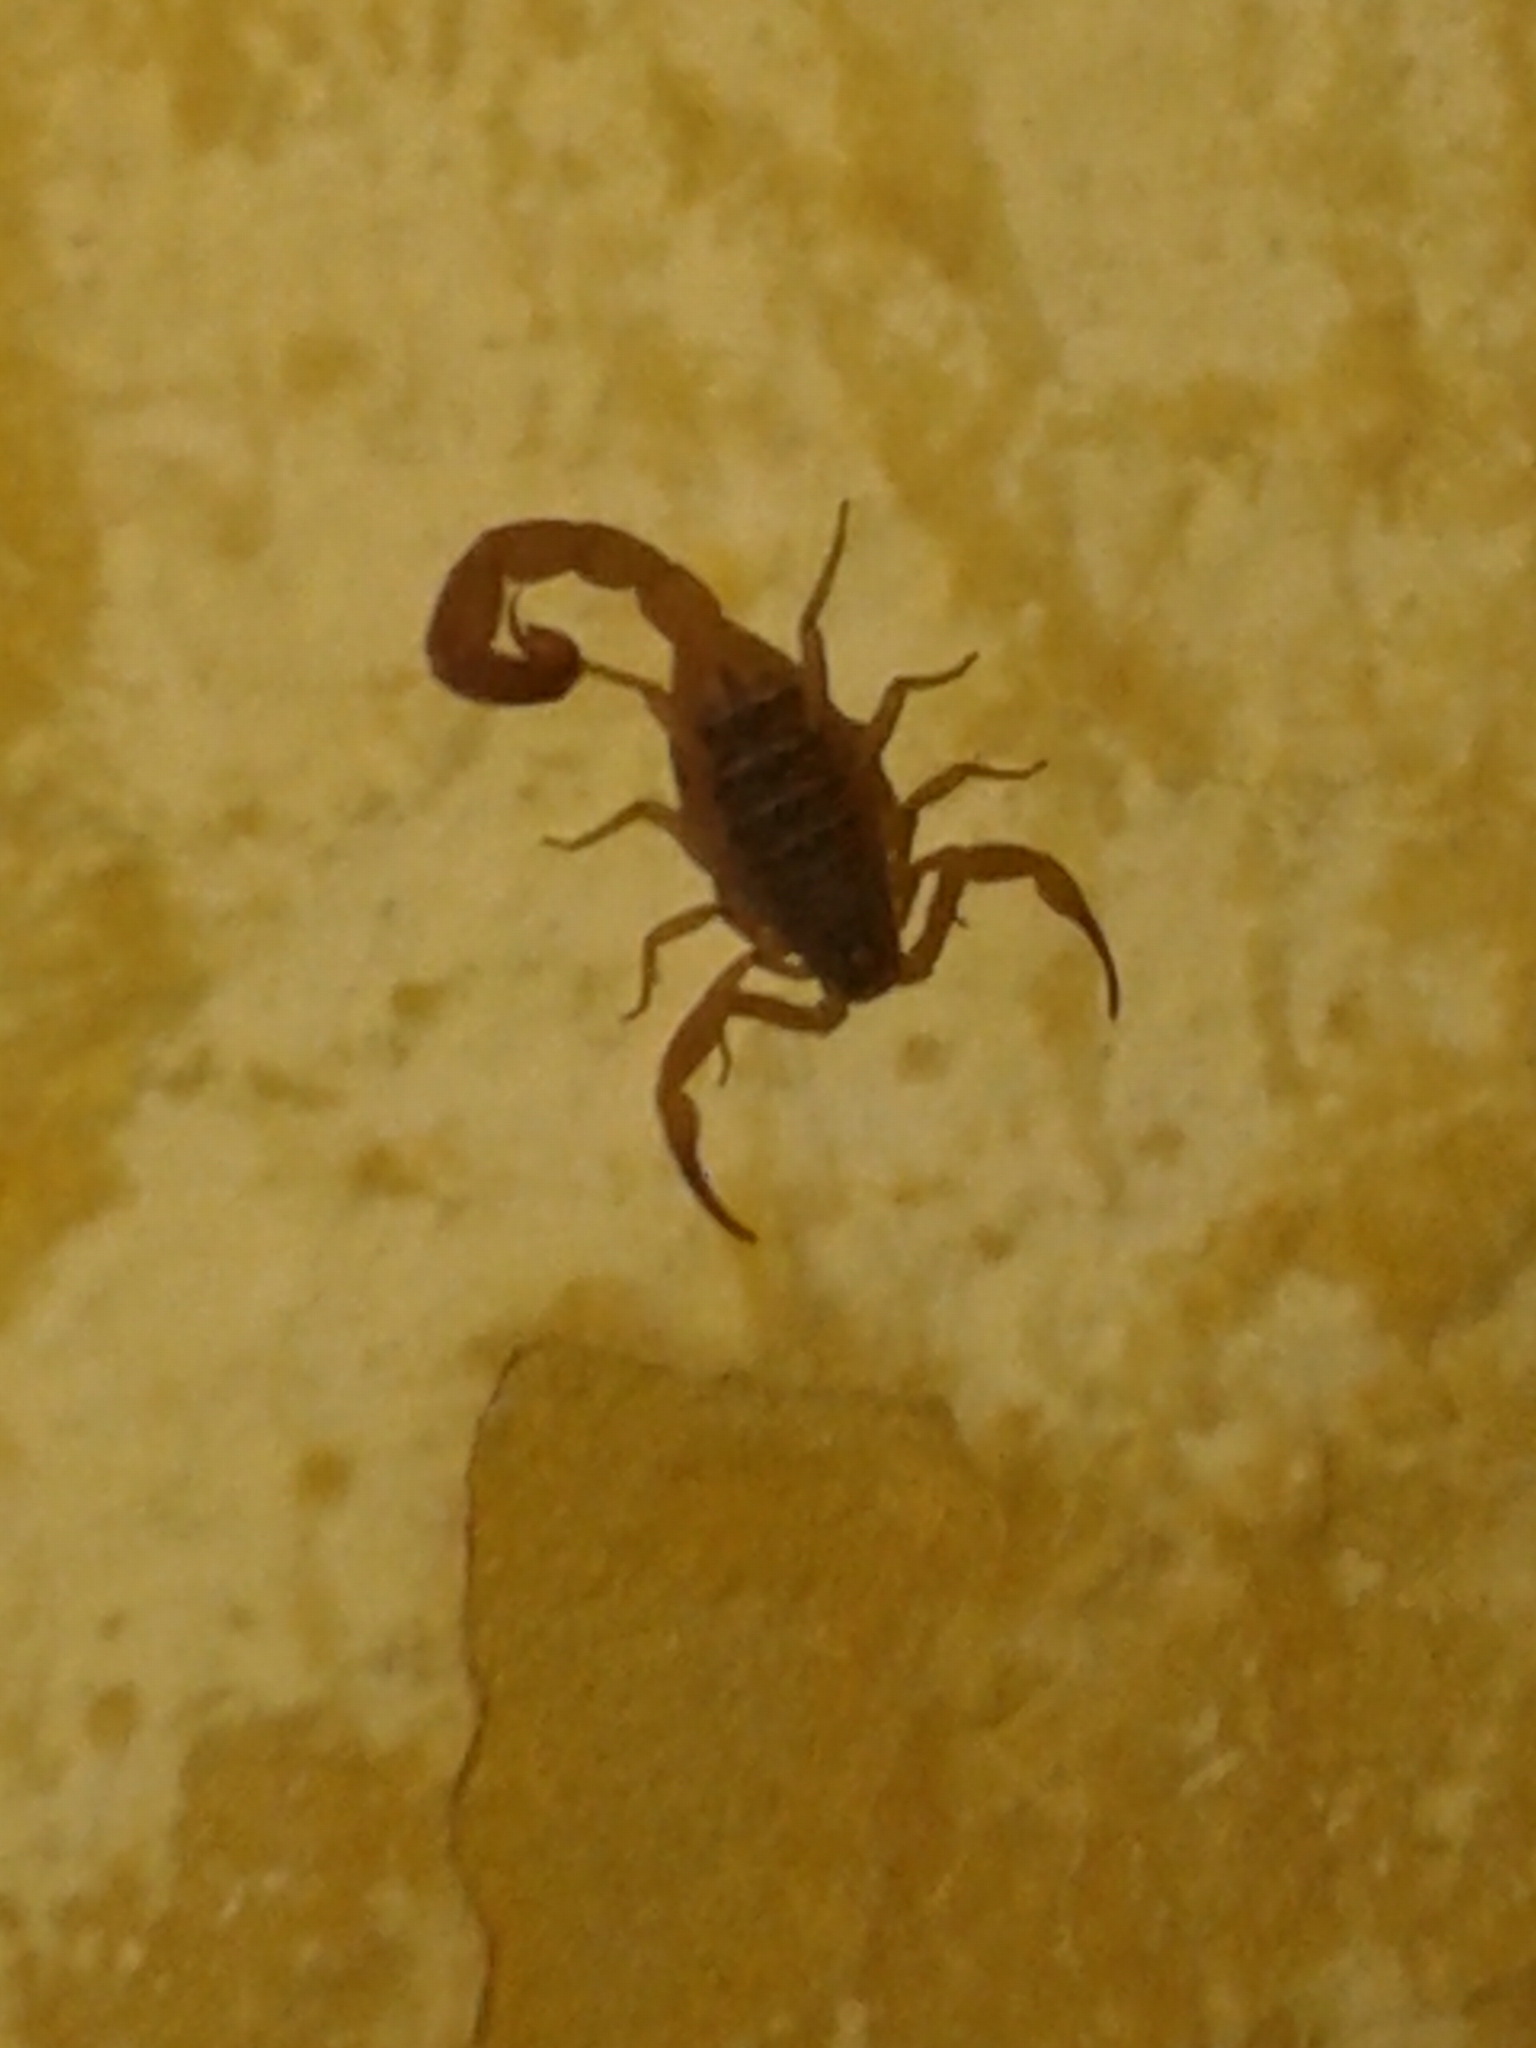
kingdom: Animalia
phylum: Arthropoda
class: Arachnida
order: Scorpiones
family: Buthidae
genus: Tityus
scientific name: Tityus serrulatus
